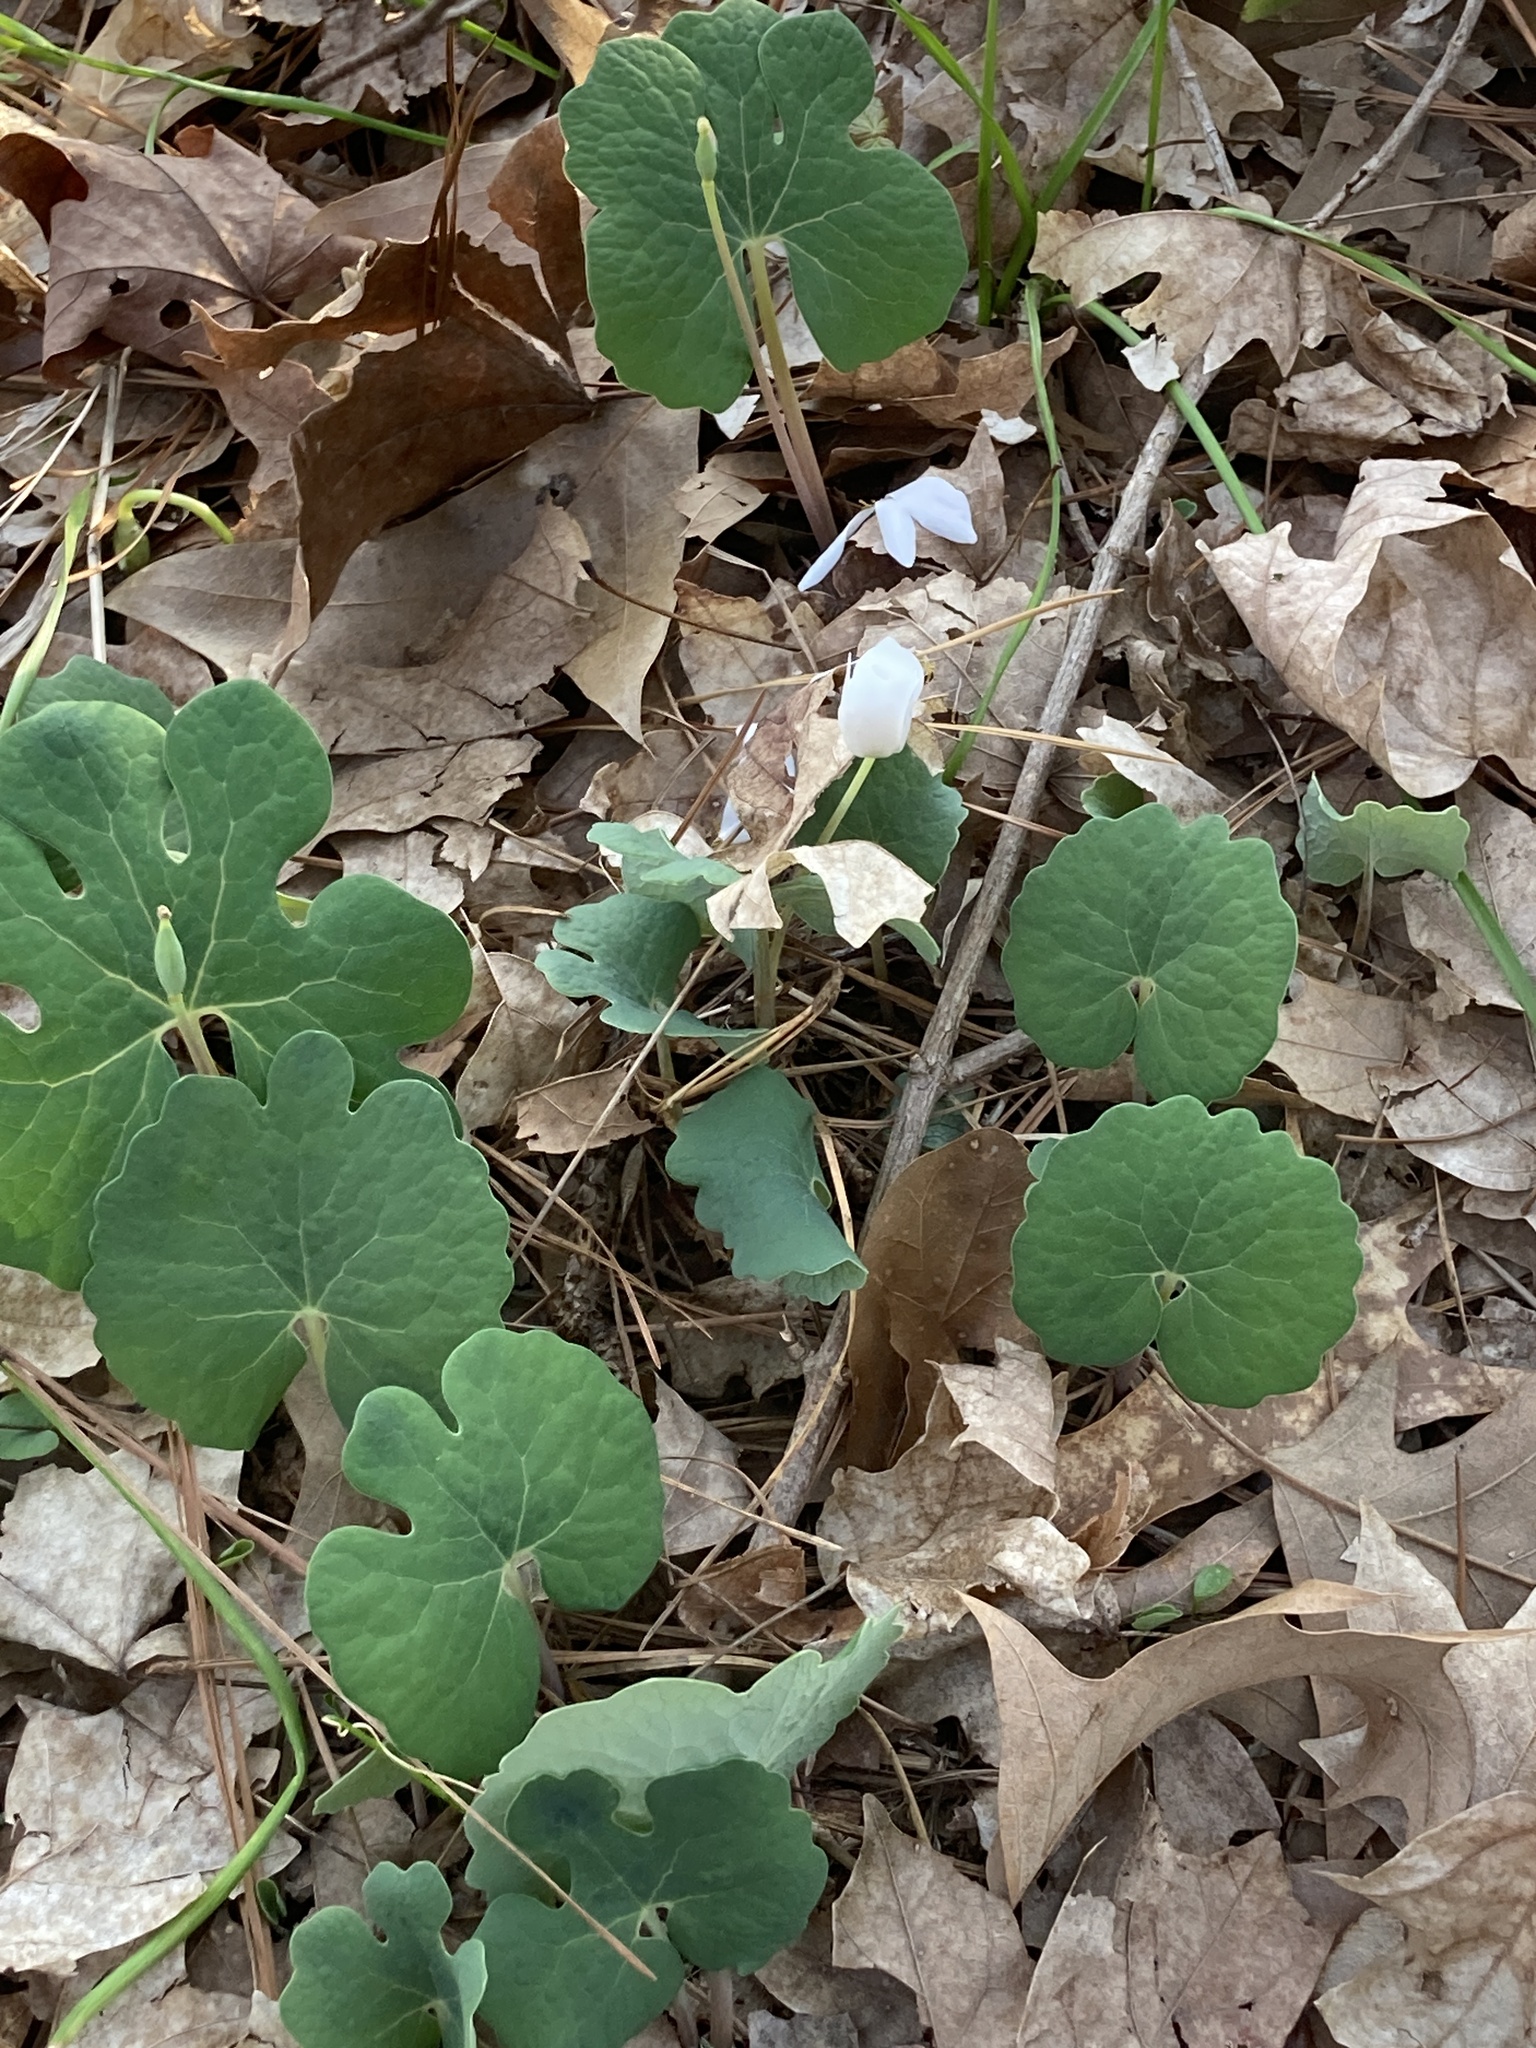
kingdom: Plantae
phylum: Tracheophyta
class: Magnoliopsida
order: Ranunculales
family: Papaveraceae
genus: Sanguinaria
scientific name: Sanguinaria canadensis
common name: Bloodroot
